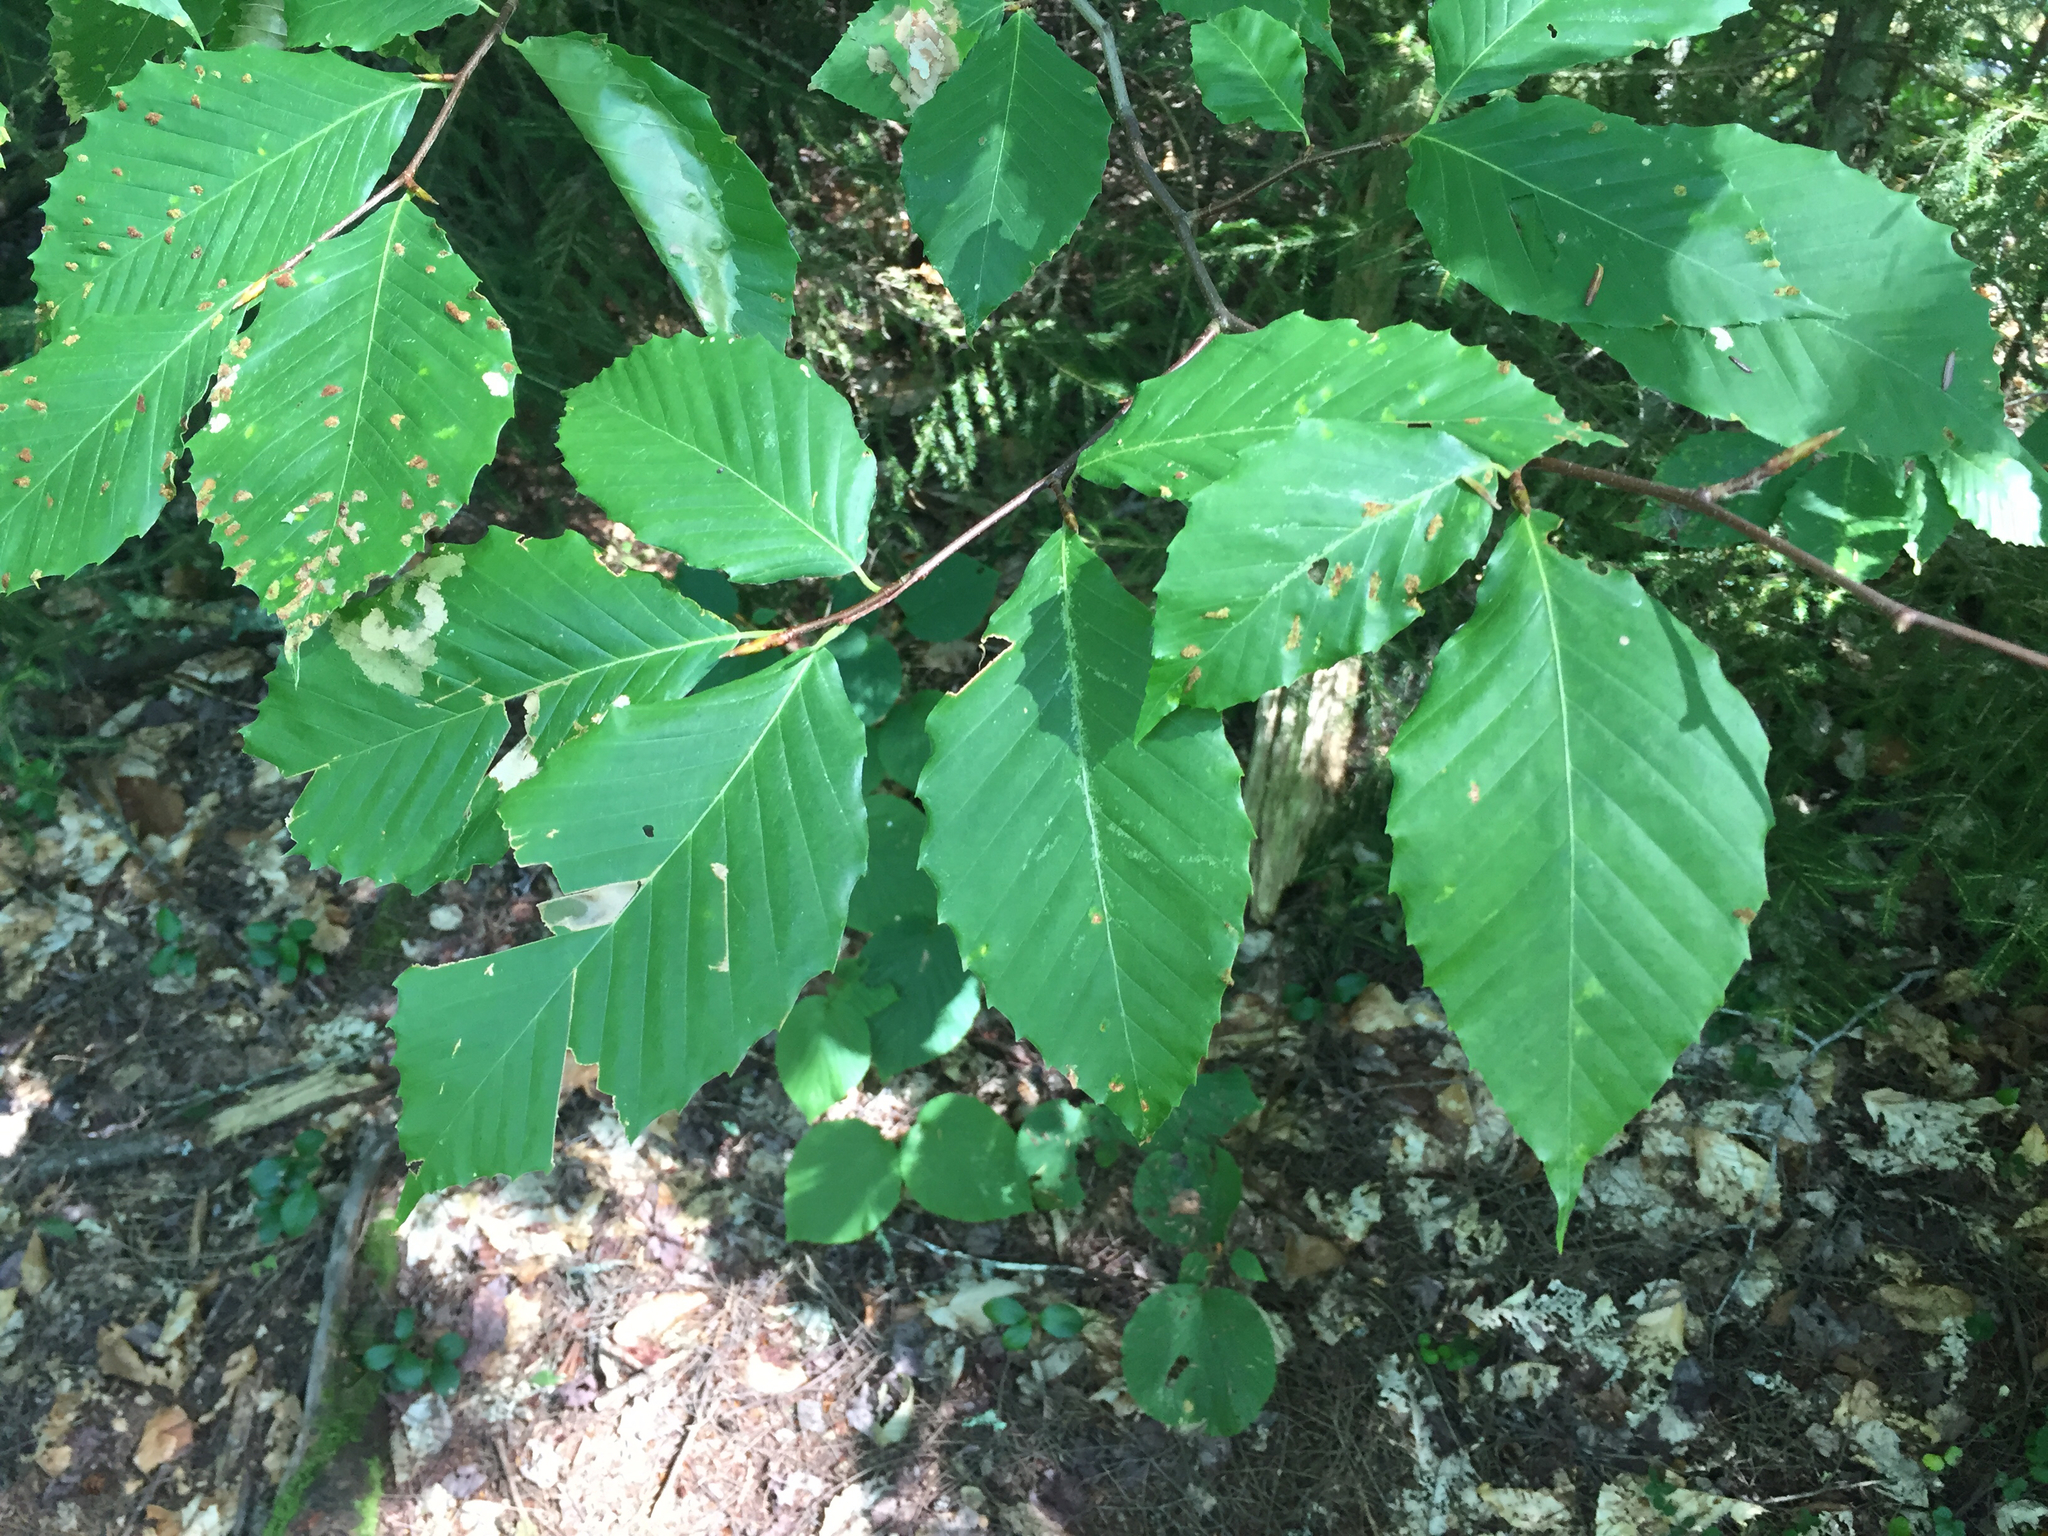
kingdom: Plantae
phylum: Tracheophyta
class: Magnoliopsida
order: Fagales
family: Fagaceae
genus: Fagus
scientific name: Fagus grandifolia
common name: American beech
